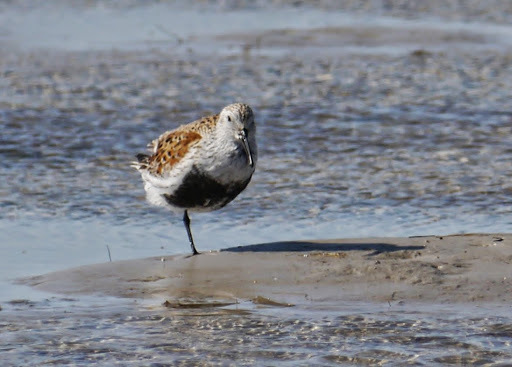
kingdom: Animalia
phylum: Chordata
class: Aves
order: Charadriiformes
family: Scolopacidae
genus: Calidris
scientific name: Calidris alpina
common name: Dunlin
